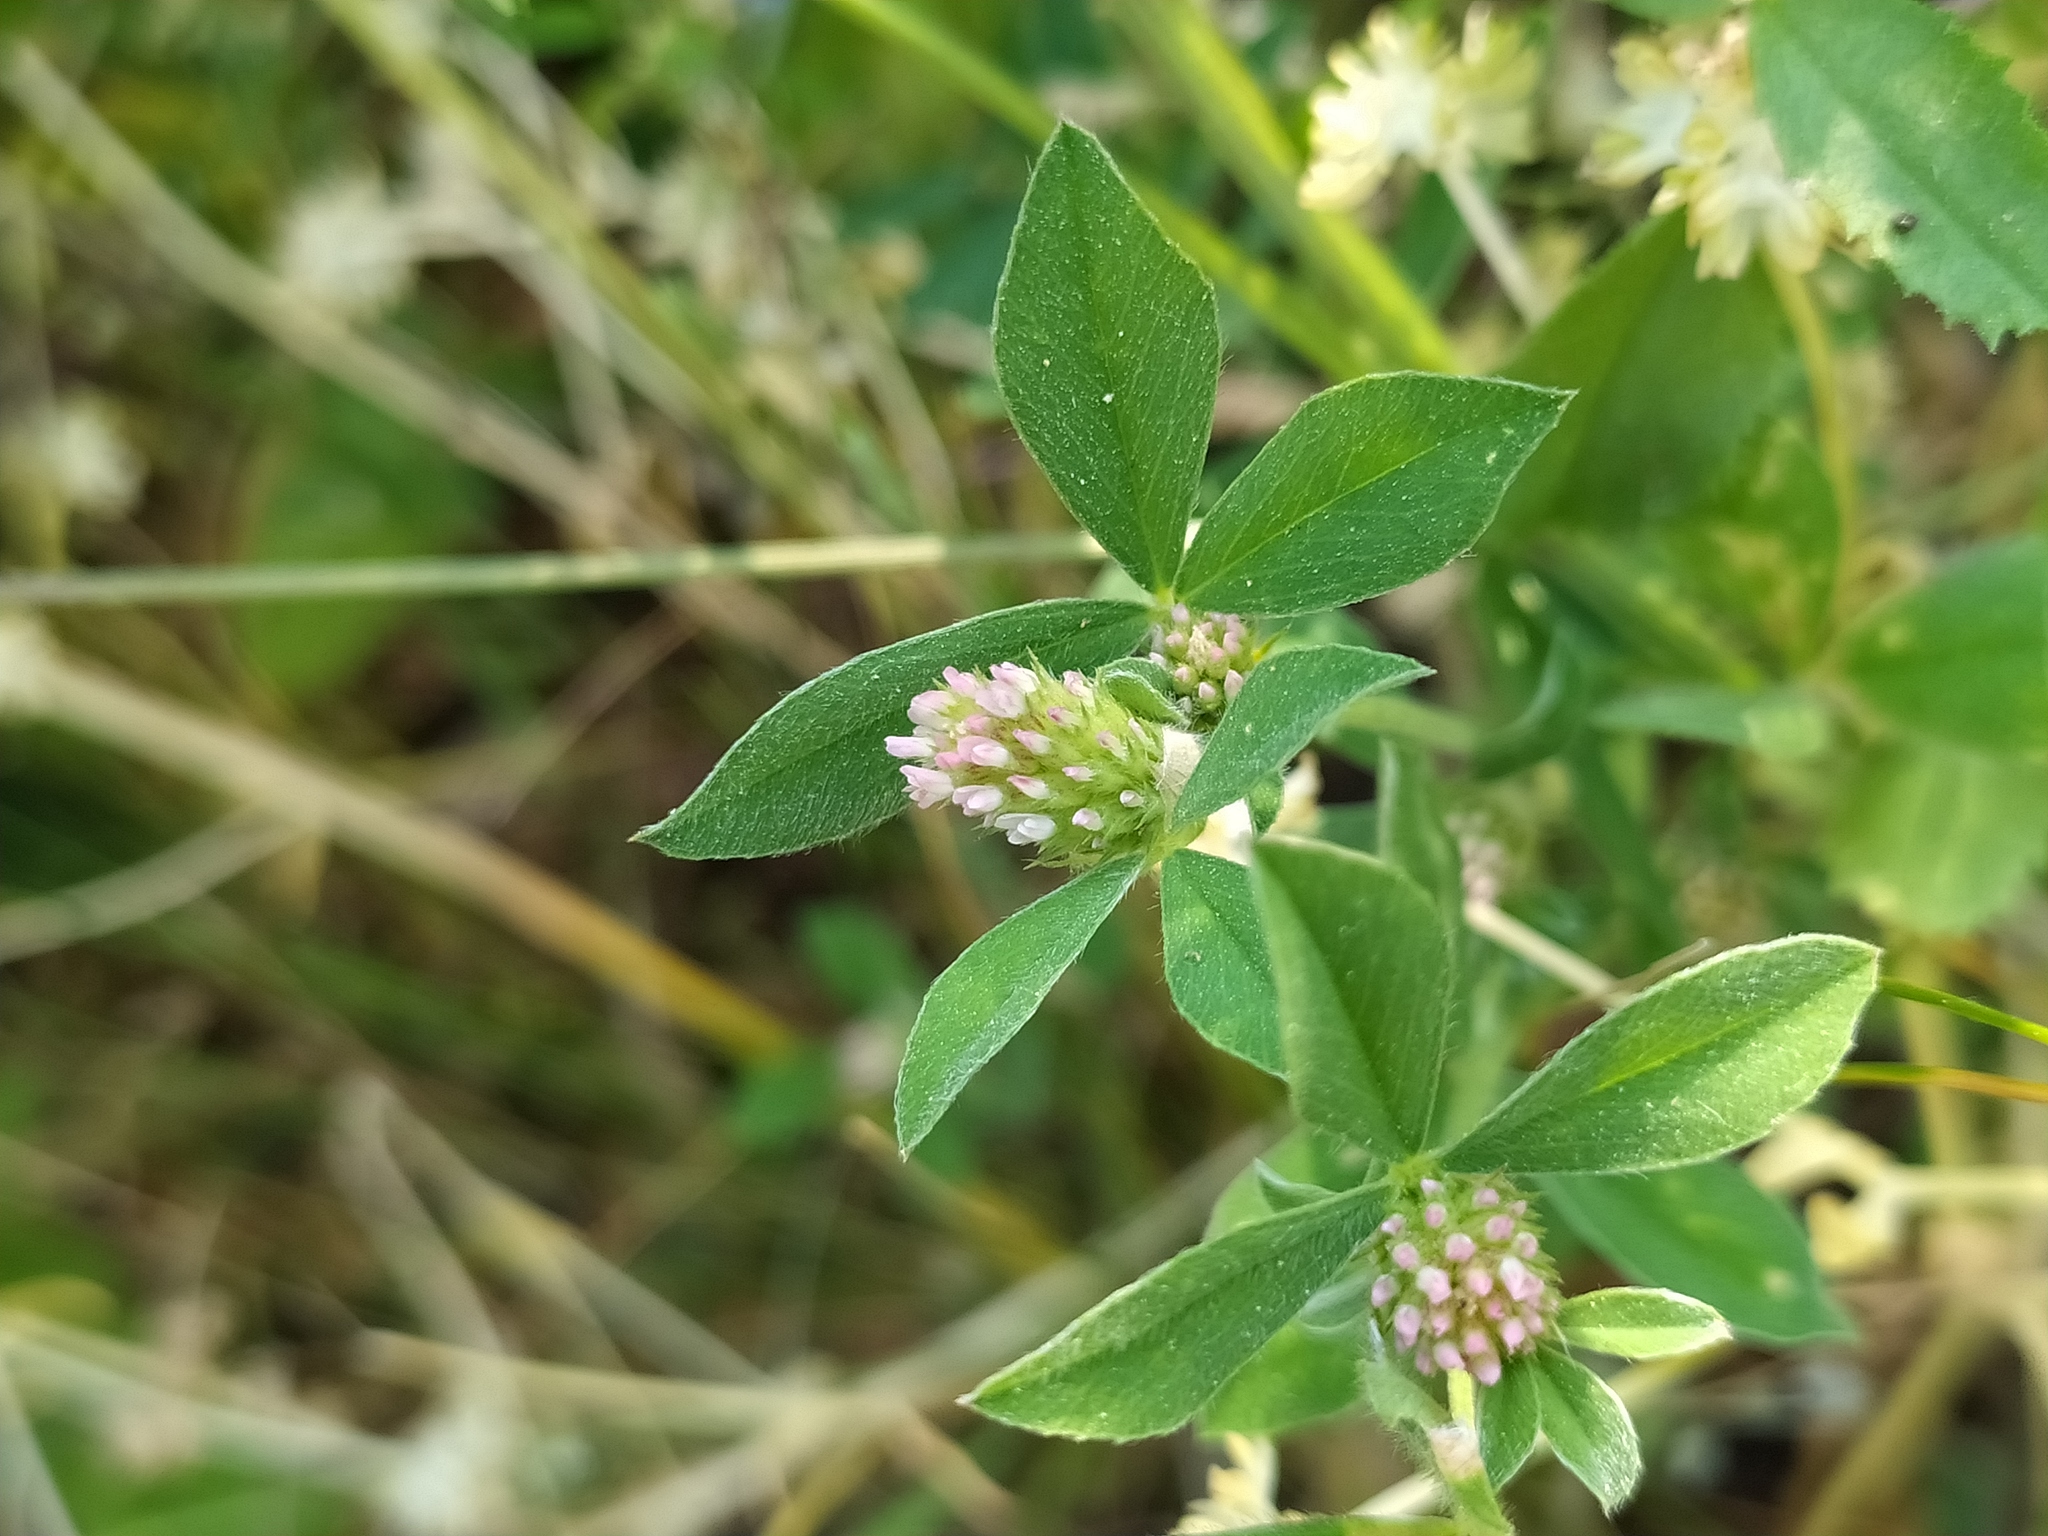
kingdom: Plantae
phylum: Tracheophyta
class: Magnoliopsida
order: Fabales
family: Fabaceae
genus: Trifolium
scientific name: Trifolium striatum
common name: Knotted clover
